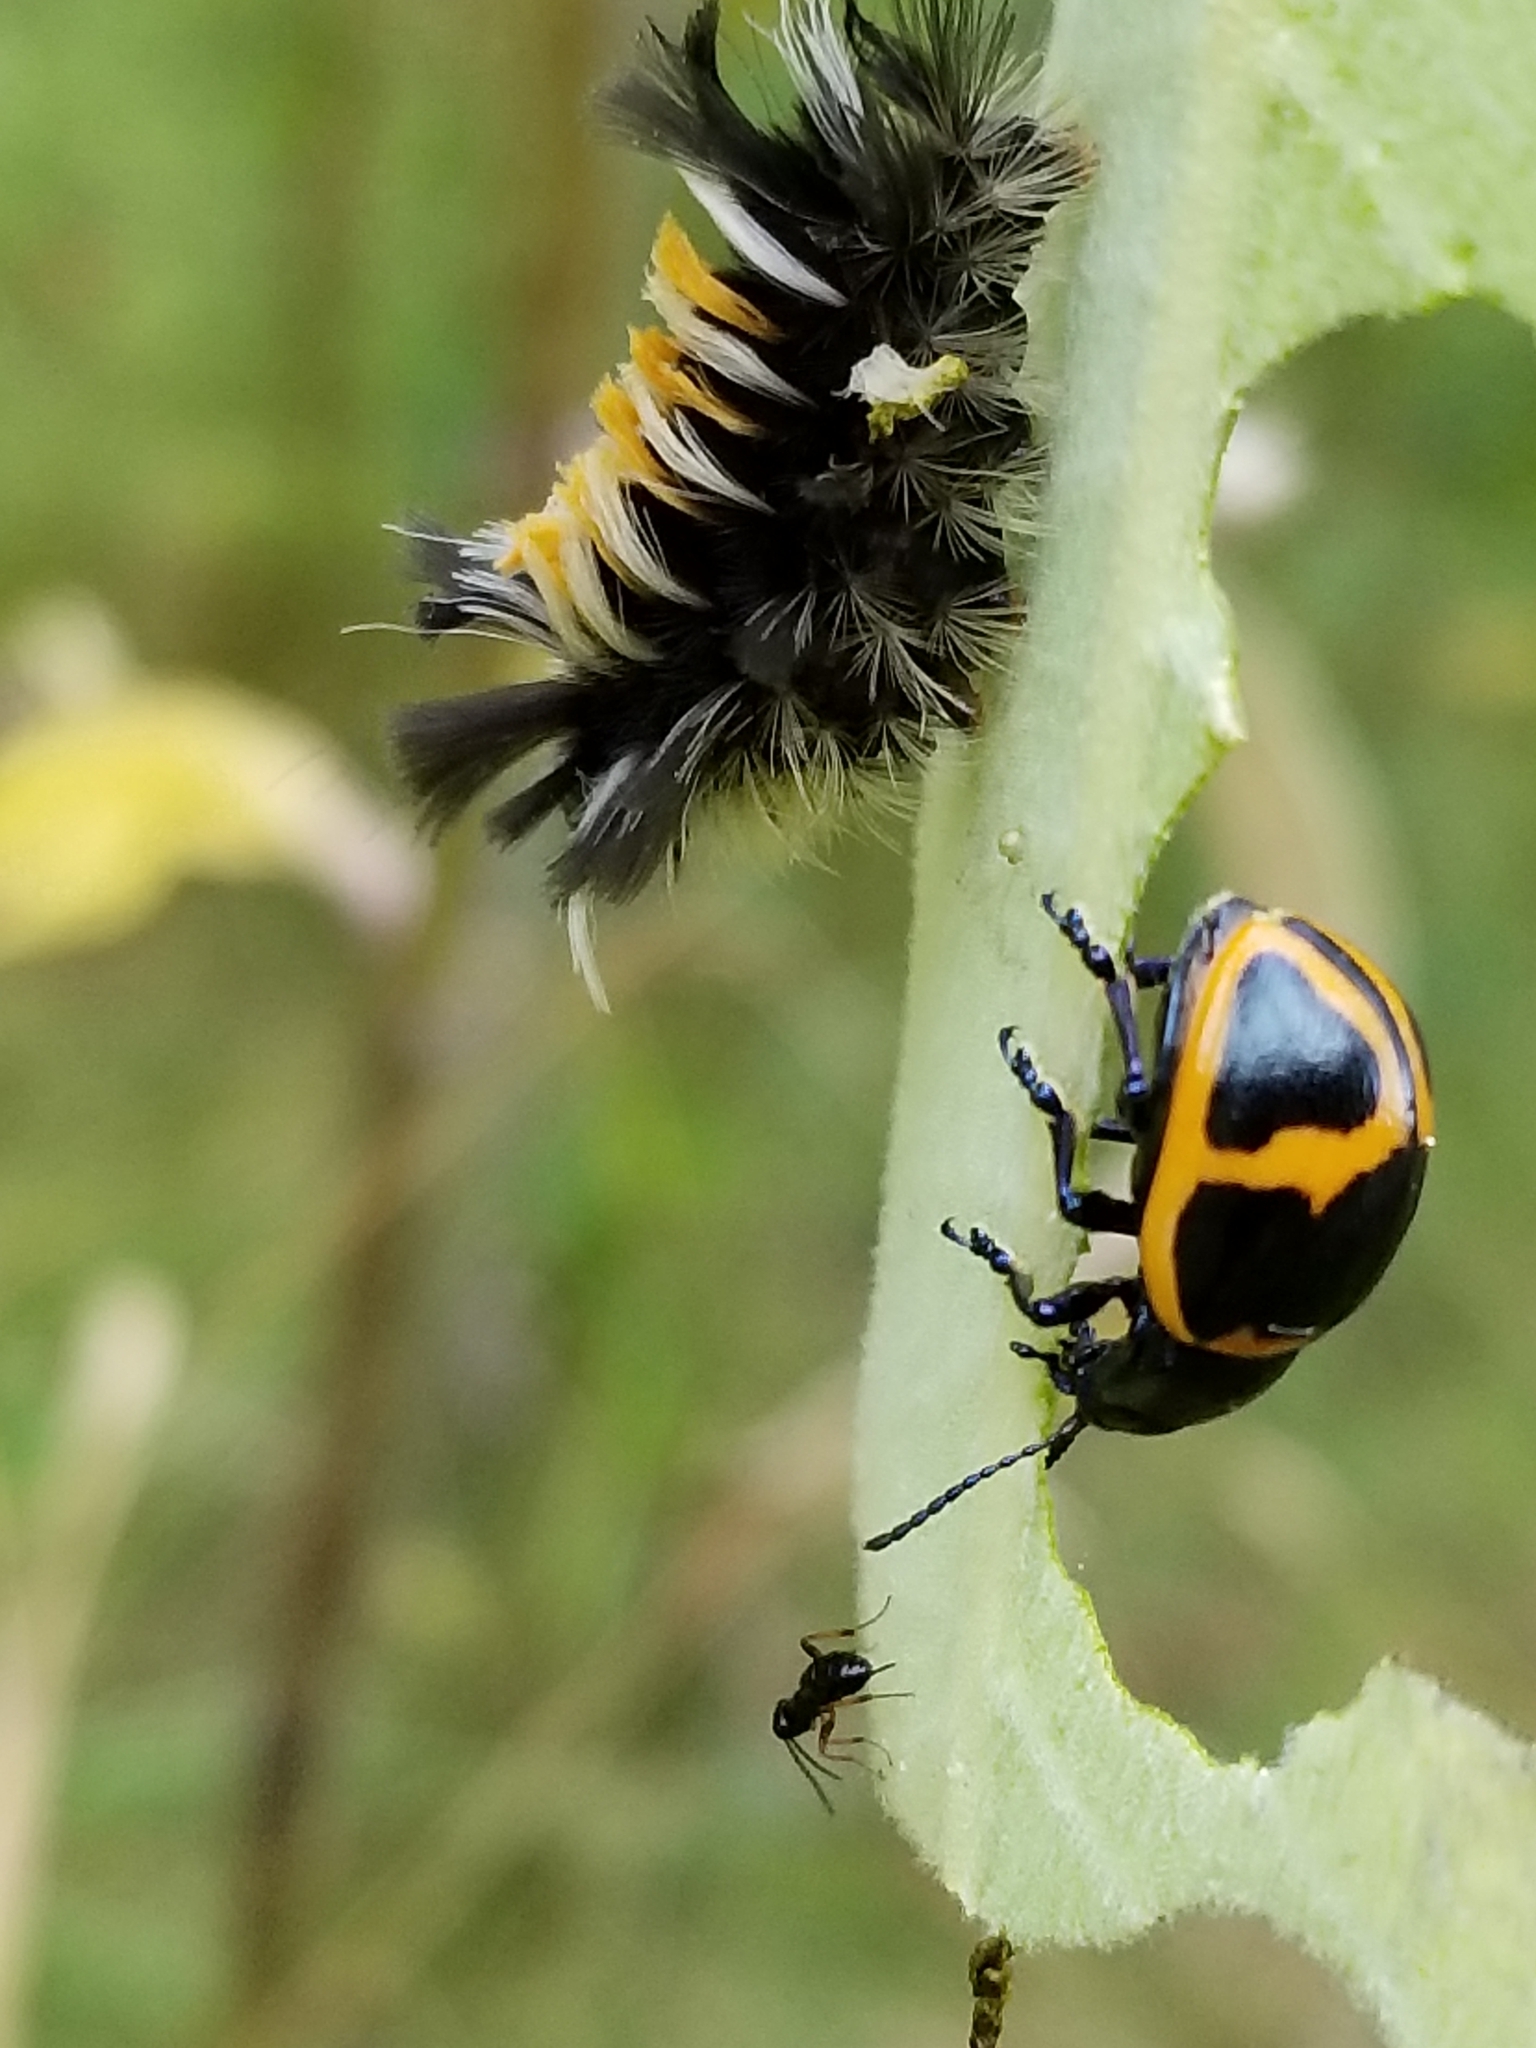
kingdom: Animalia
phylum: Arthropoda
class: Insecta
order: Coleoptera
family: Chrysomelidae
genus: Labidomera
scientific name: Labidomera clivicollis
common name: Swamp milkweed leaf beetle
